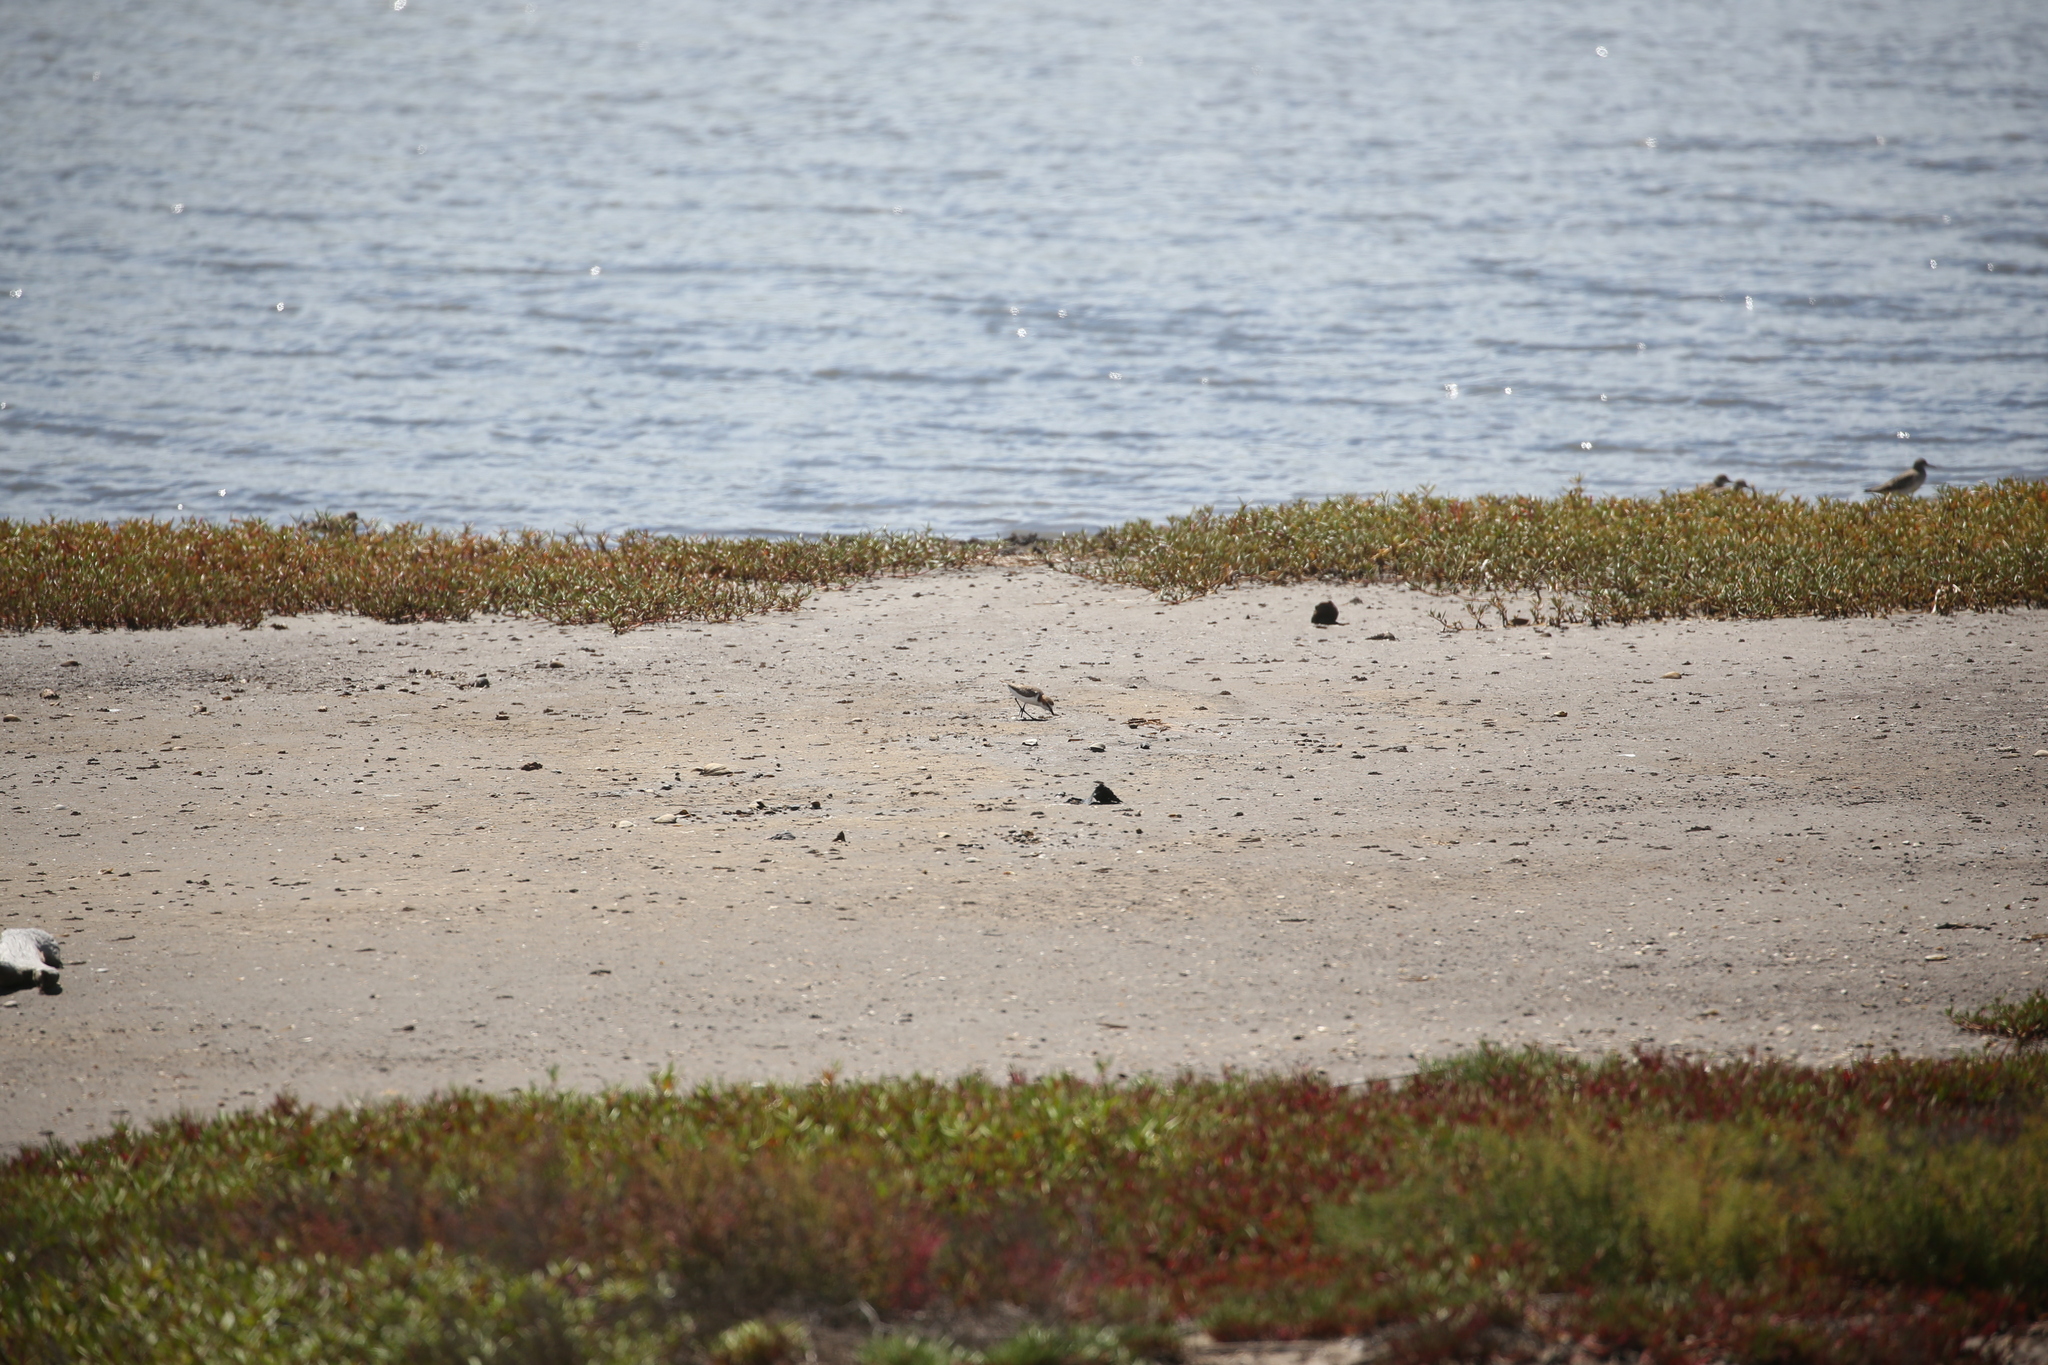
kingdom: Animalia
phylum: Chordata
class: Aves
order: Charadriiformes
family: Charadriidae
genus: Anarhynchus
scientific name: Anarhynchus
